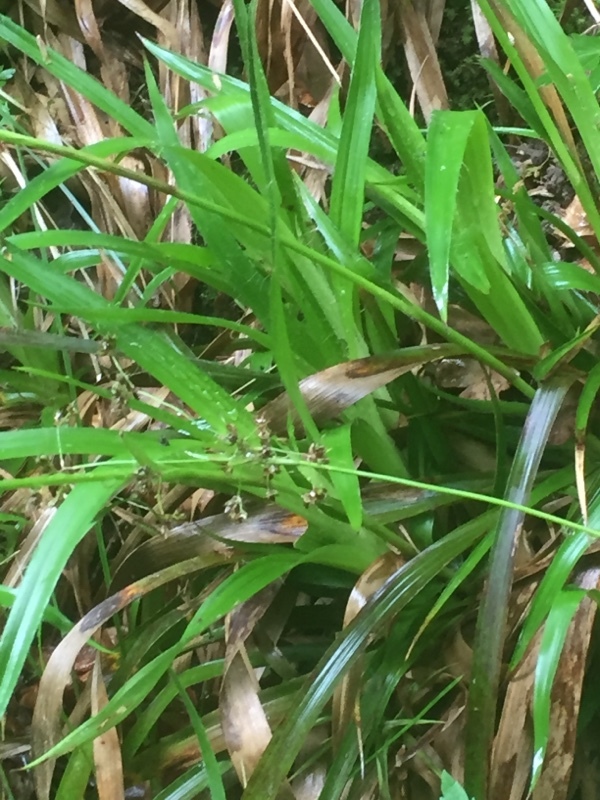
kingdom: Plantae
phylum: Tracheophyta
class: Liliopsida
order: Poales
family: Juncaceae
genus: Luzula
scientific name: Luzula sylvatica
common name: Great wood-rush
